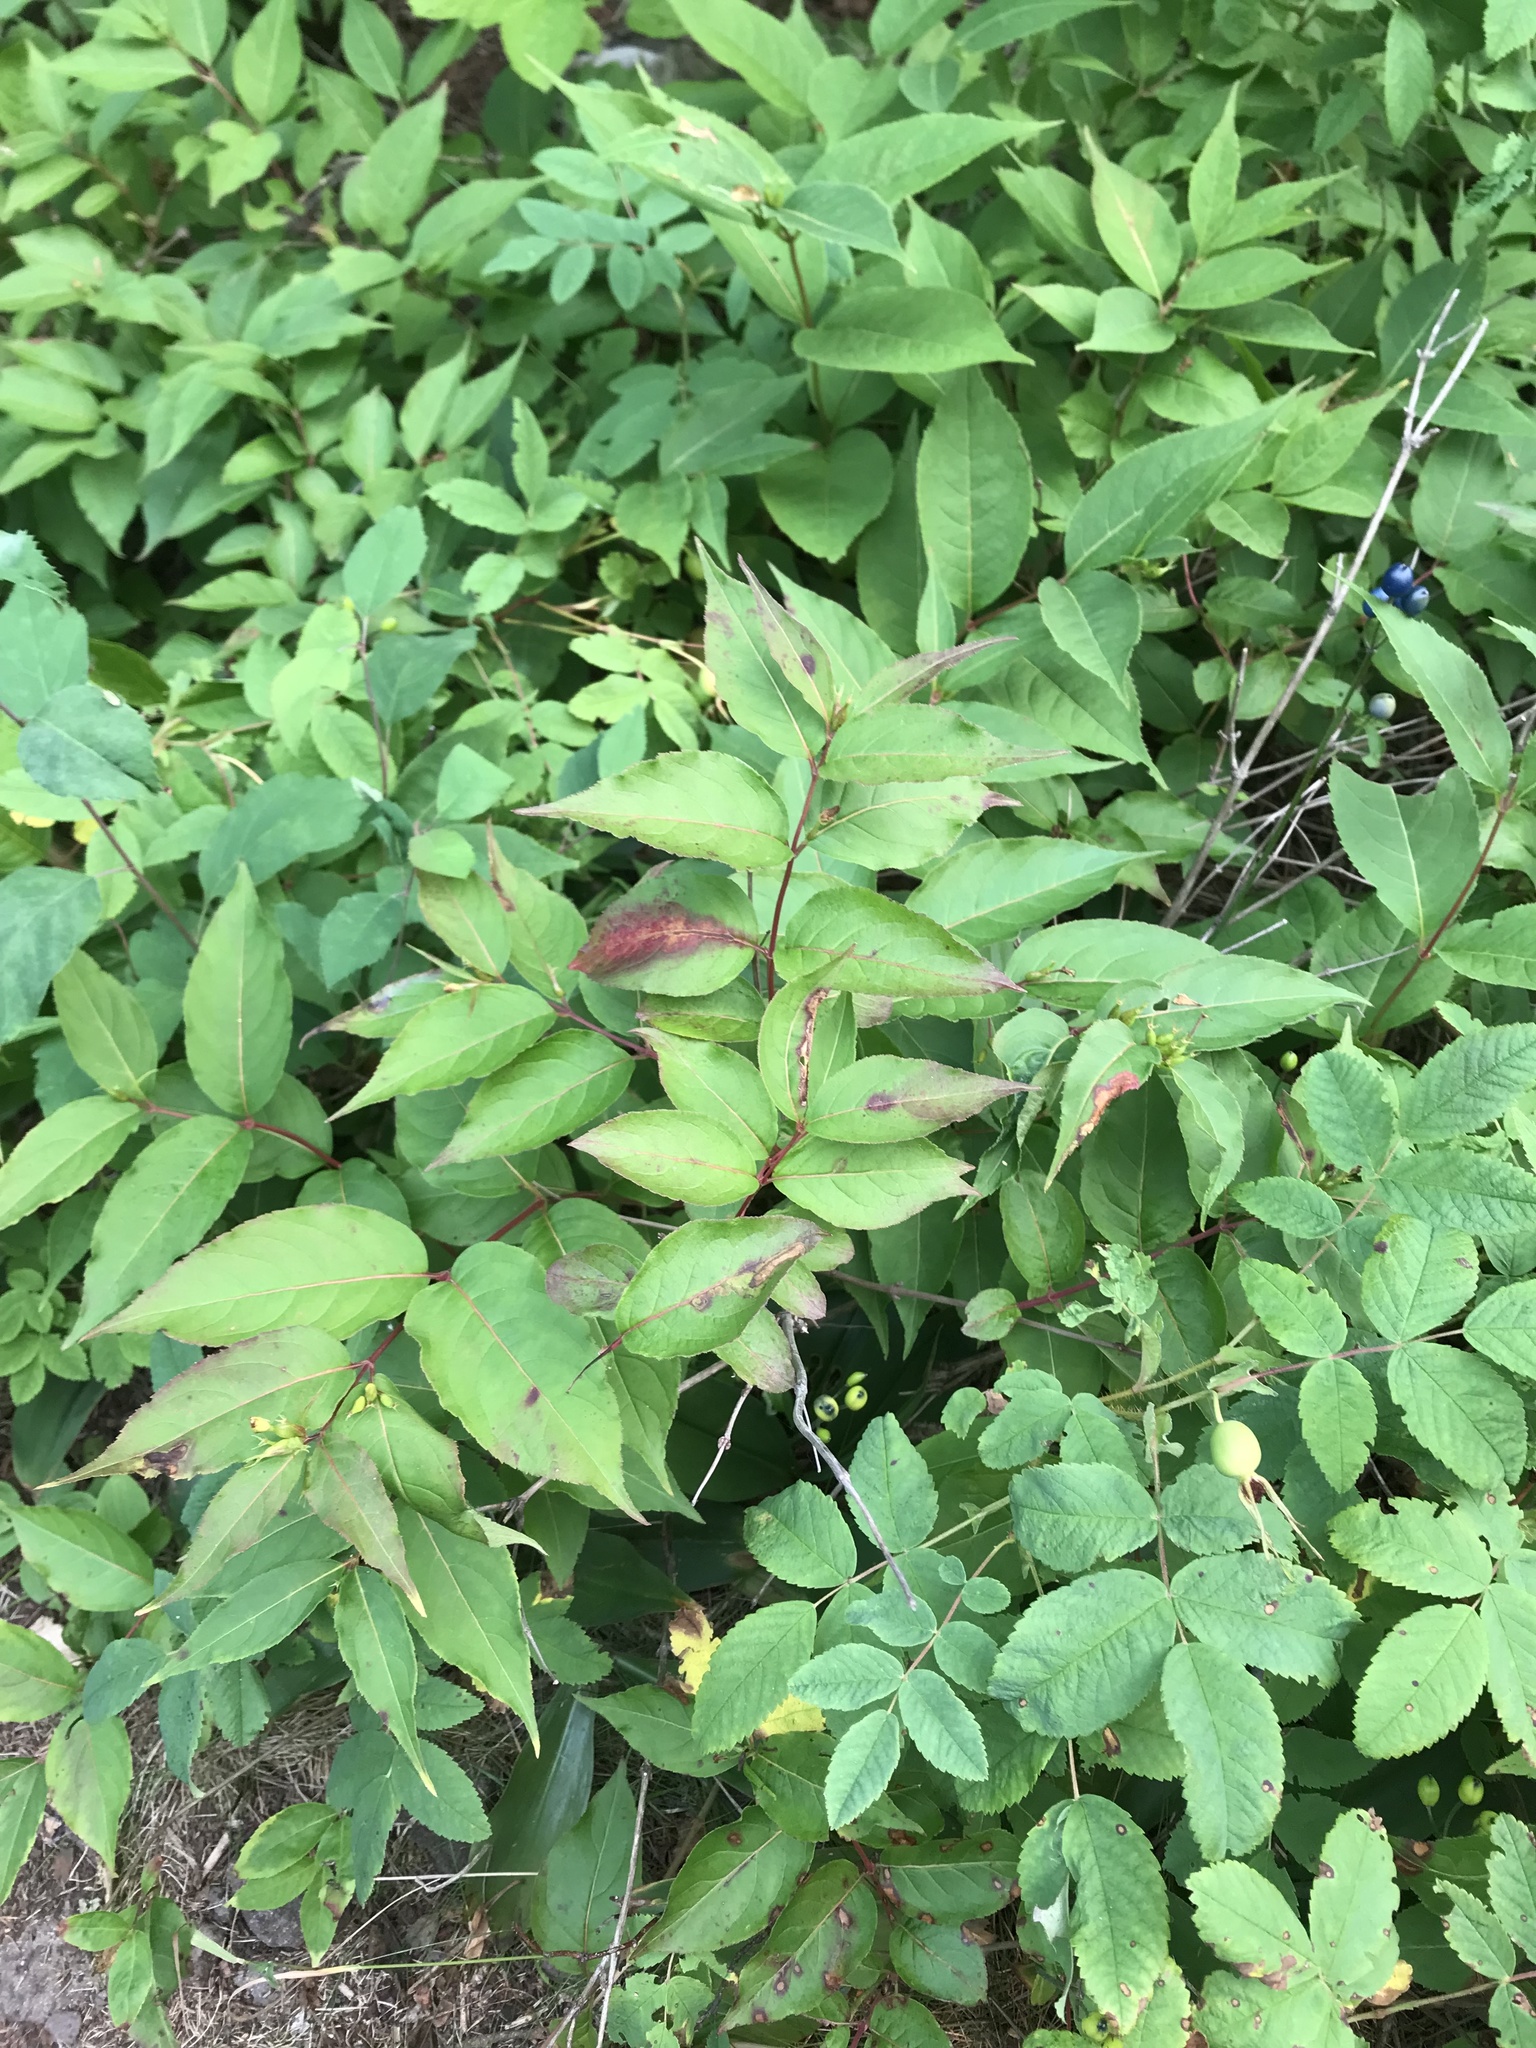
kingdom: Plantae
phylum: Tracheophyta
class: Magnoliopsida
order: Dipsacales
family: Caprifoliaceae
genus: Diervilla
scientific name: Diervilla lonicera
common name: Bush-honeysuckle
